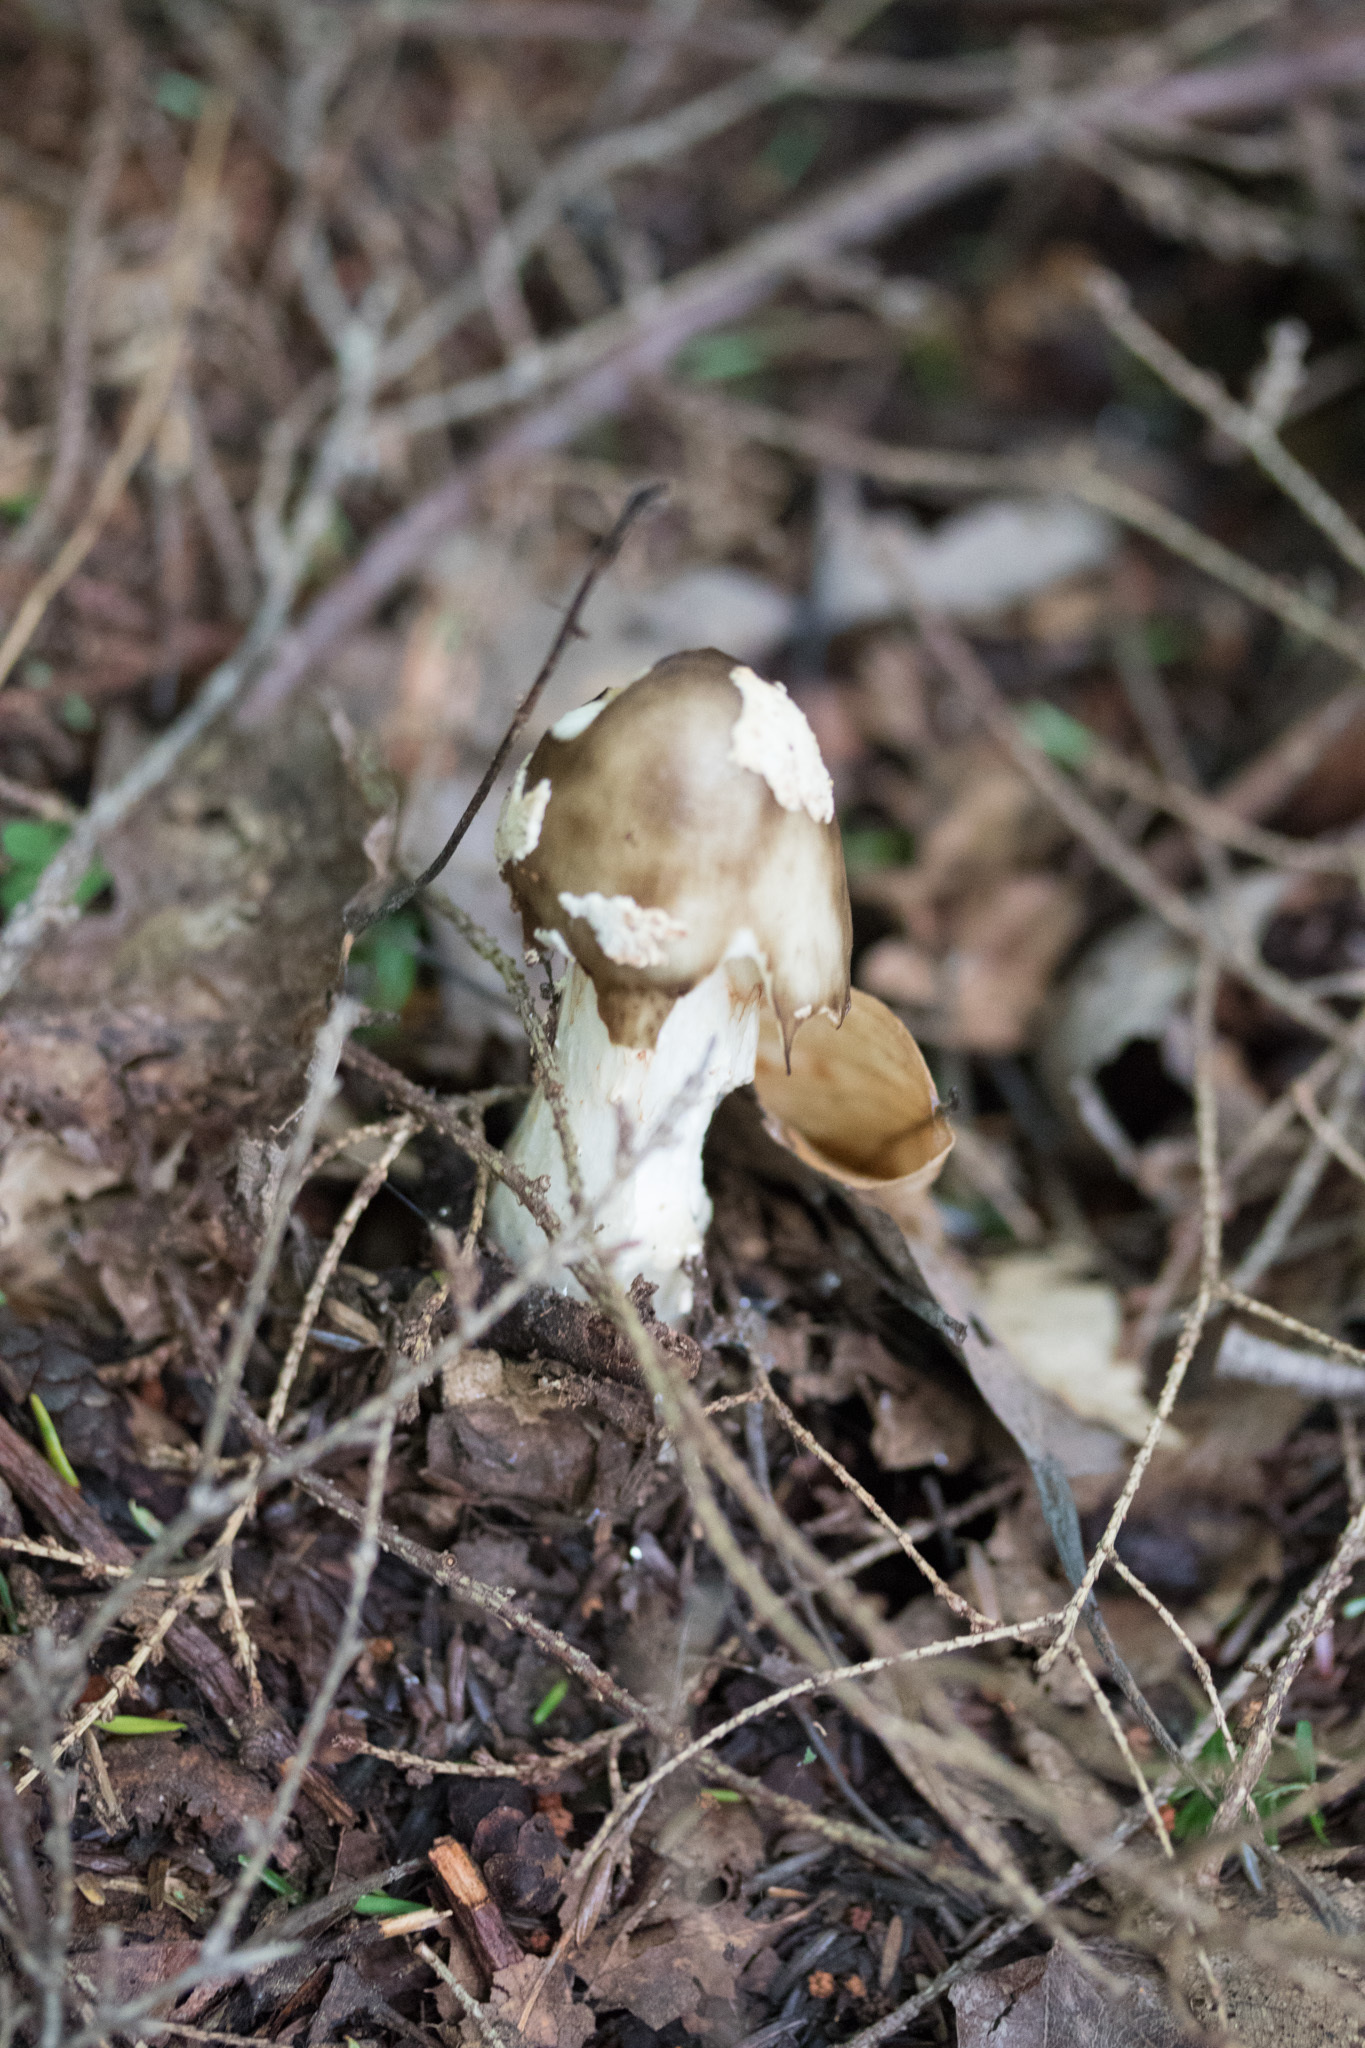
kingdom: Fungi
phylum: Basidiomycota
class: Agaricomycetes
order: Agaricales
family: Amanitaceae
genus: Amanita
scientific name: Amanita brunnescens
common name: Brown american star-footed amanita
